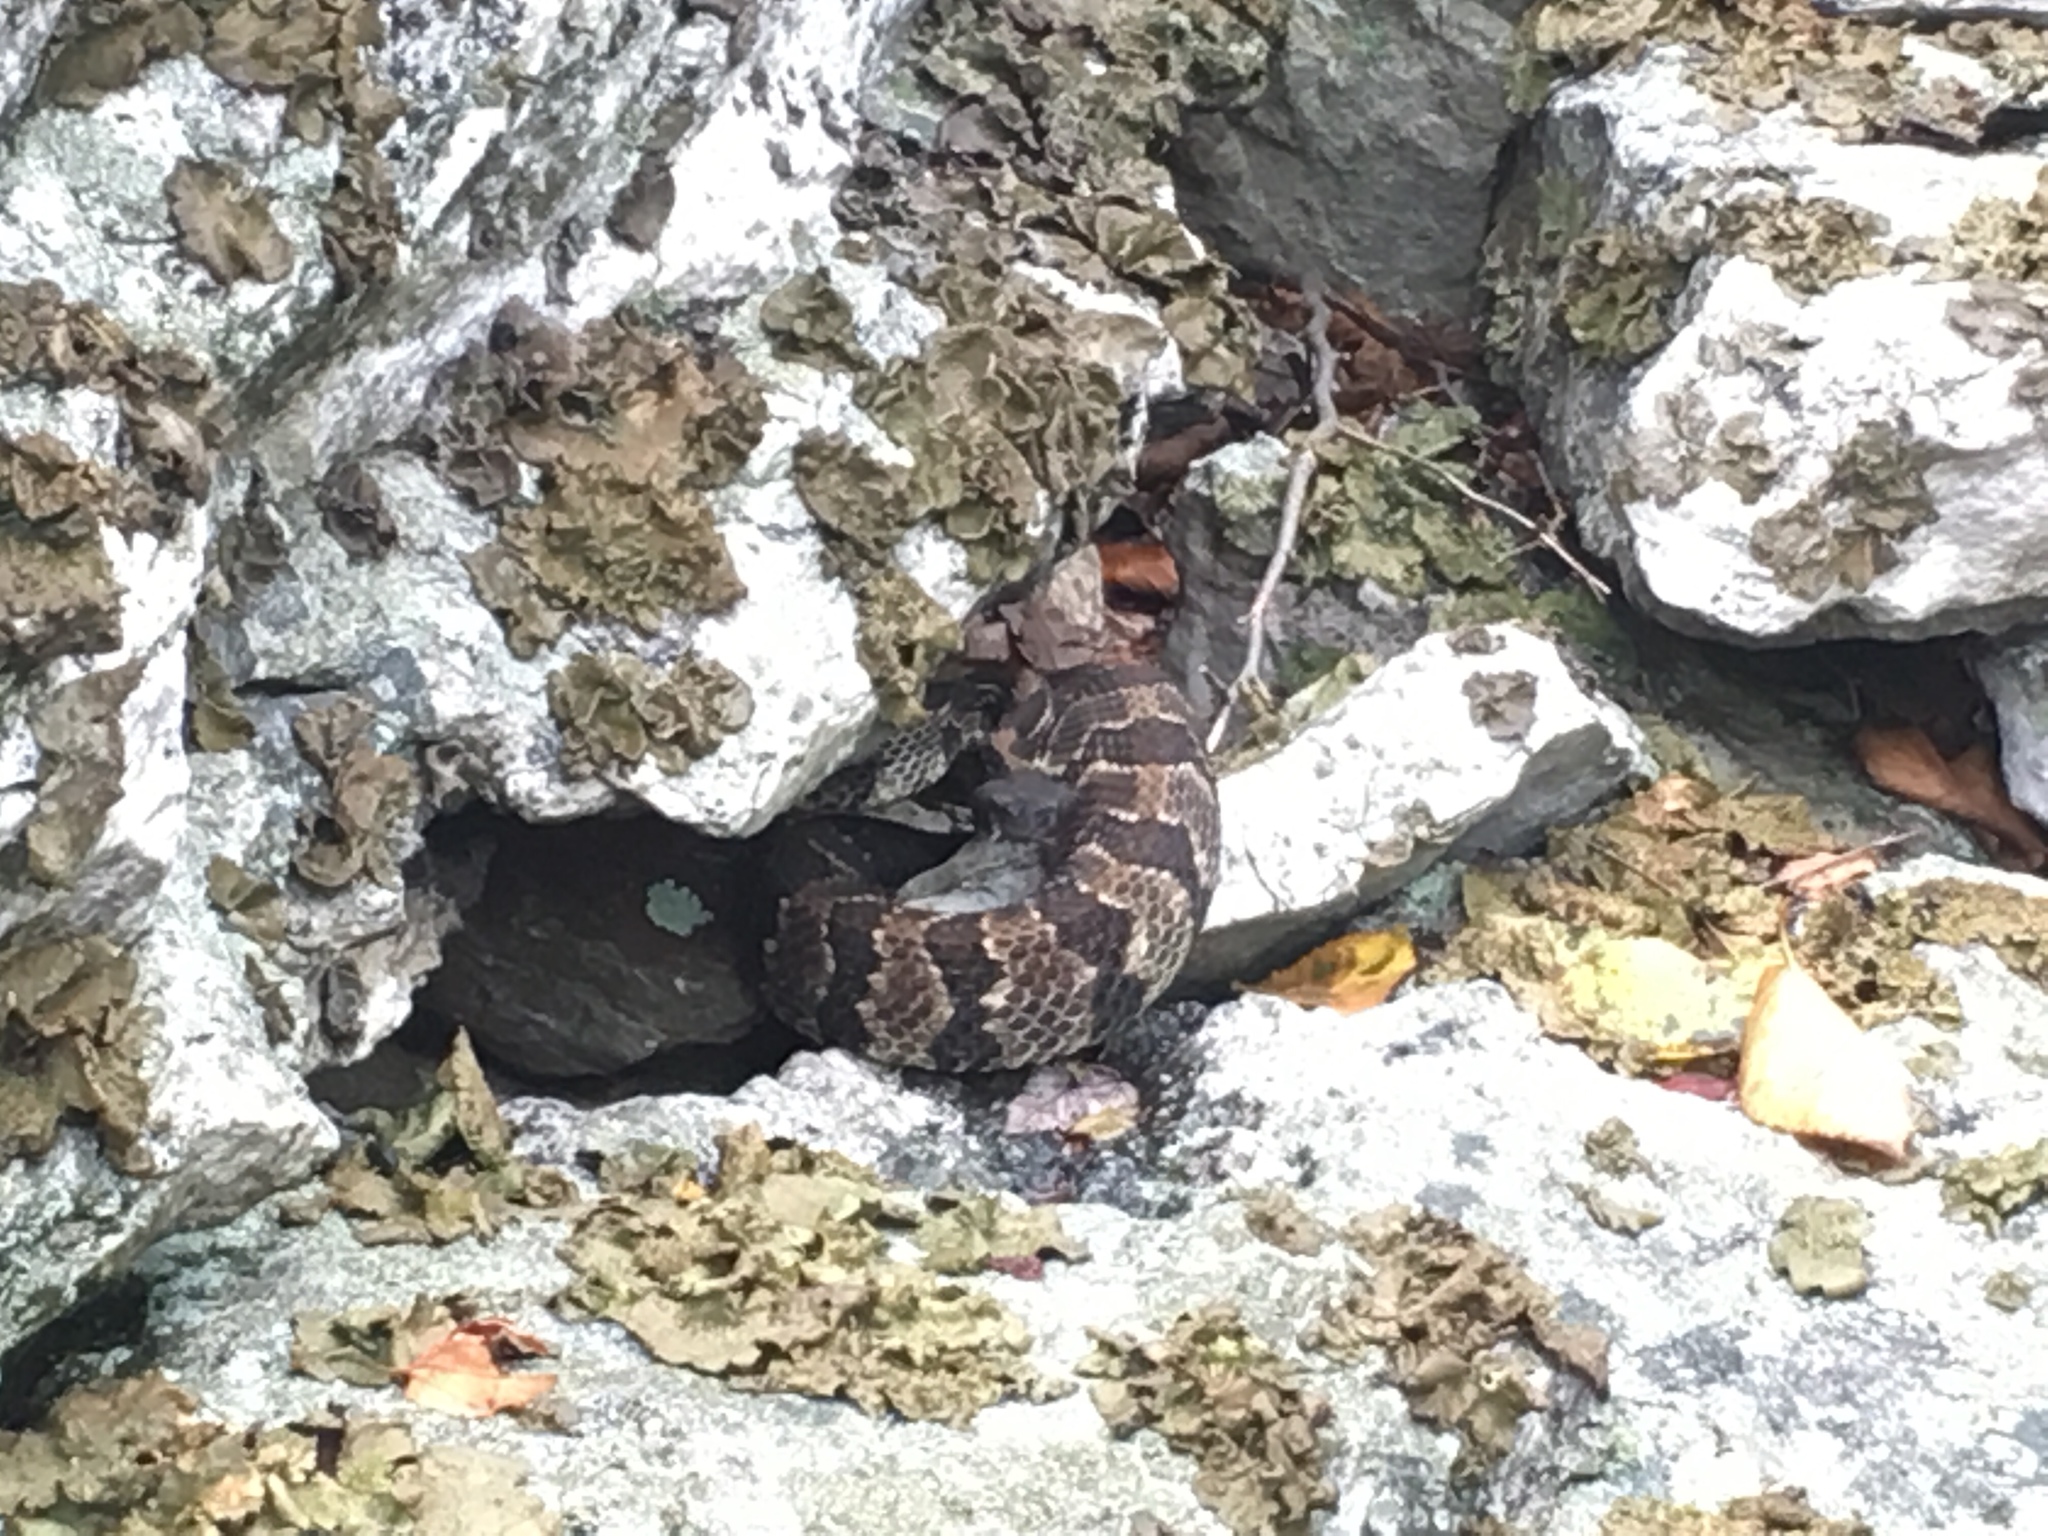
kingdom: Animalia
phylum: Chordata
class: Squamata
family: Viperidae
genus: Crotalus
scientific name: Crotalus horridus
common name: Timber rattlesnake
